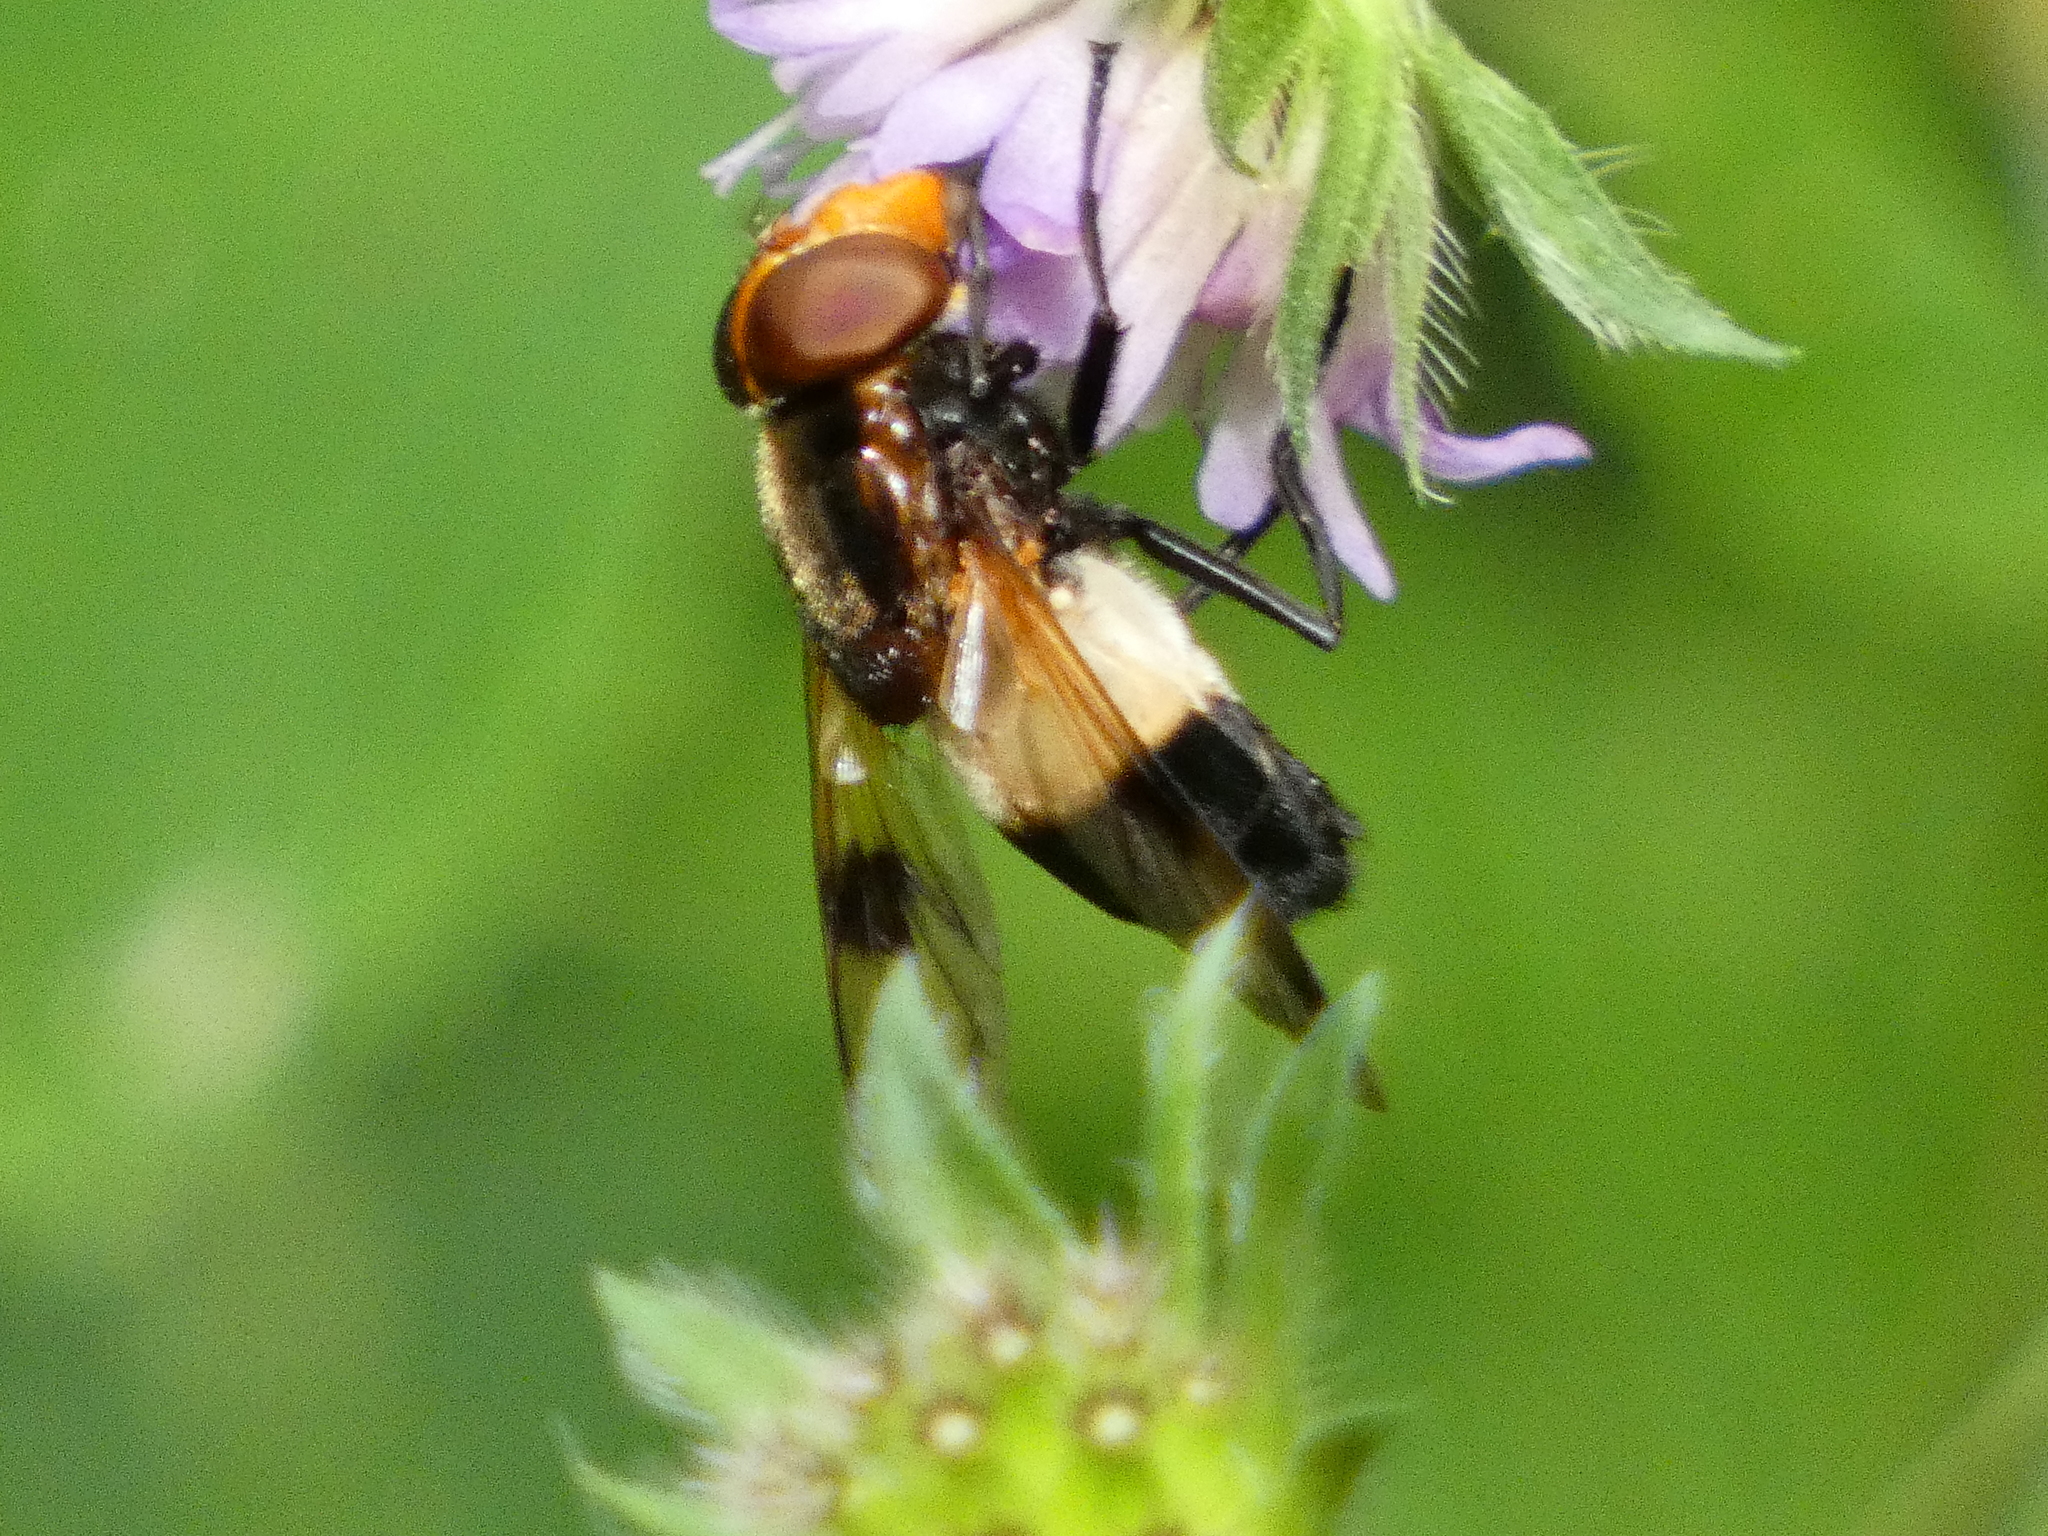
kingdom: Animalia
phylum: Arthropoda
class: Insecta
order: Diptera
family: Syrphidae
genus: Volucella
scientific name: Volucella pellucens
